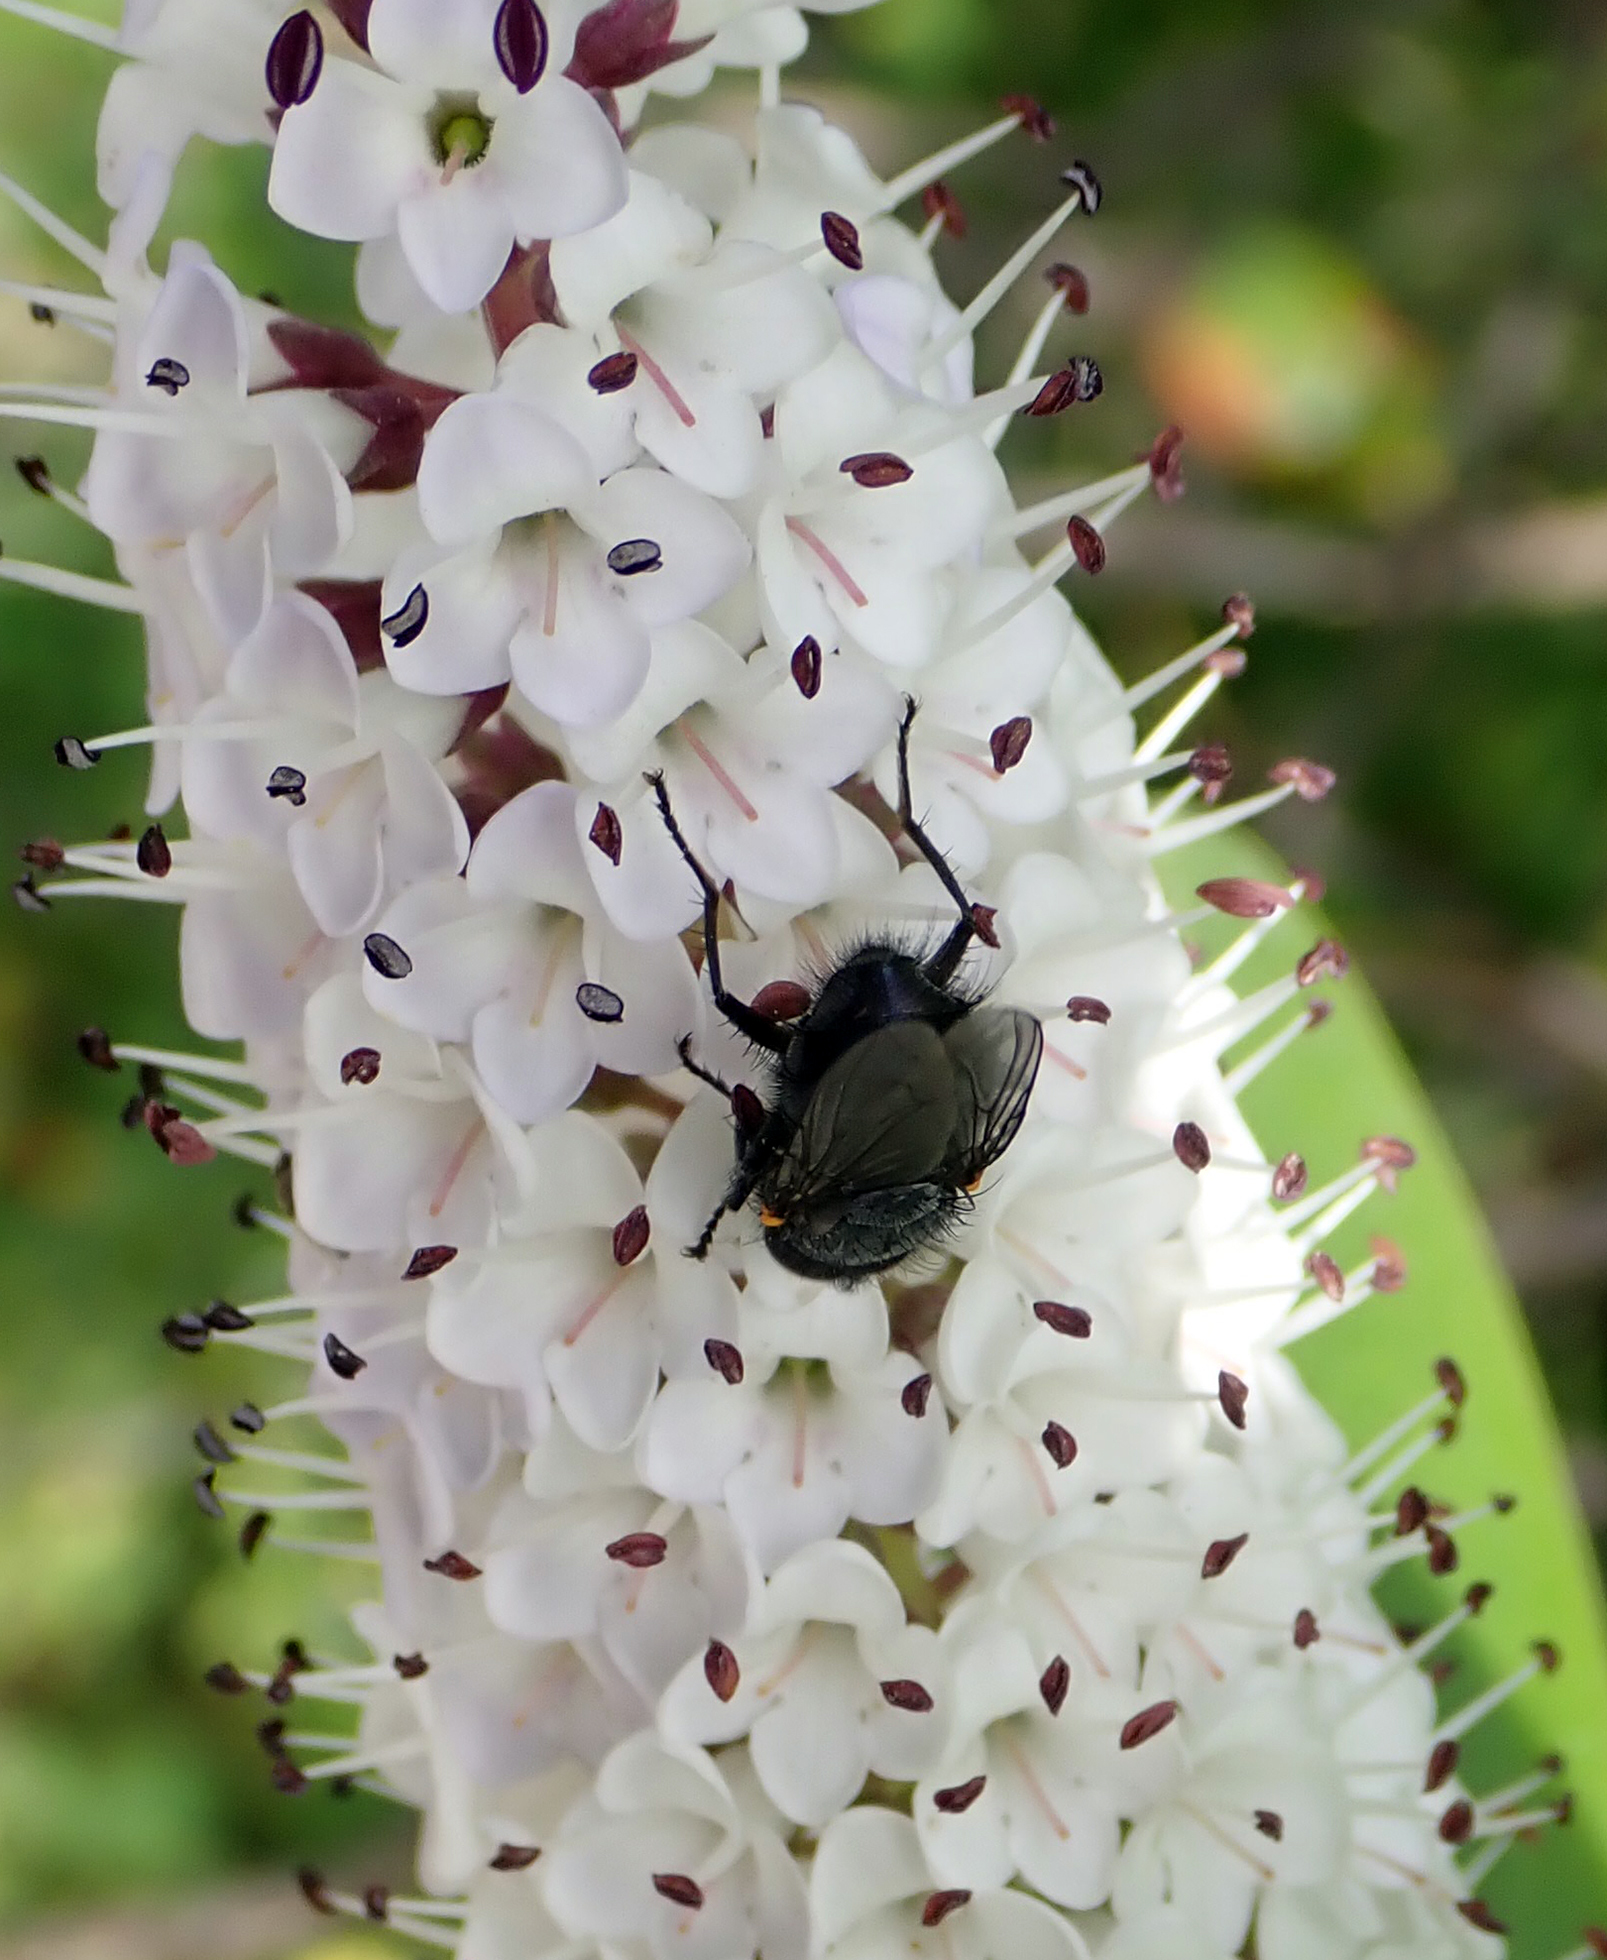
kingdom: Animalia
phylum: Arthropoda
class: Insecta
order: Diptera
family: Calliphoridae
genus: Calliphora
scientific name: Calliphora quadrimaculata
